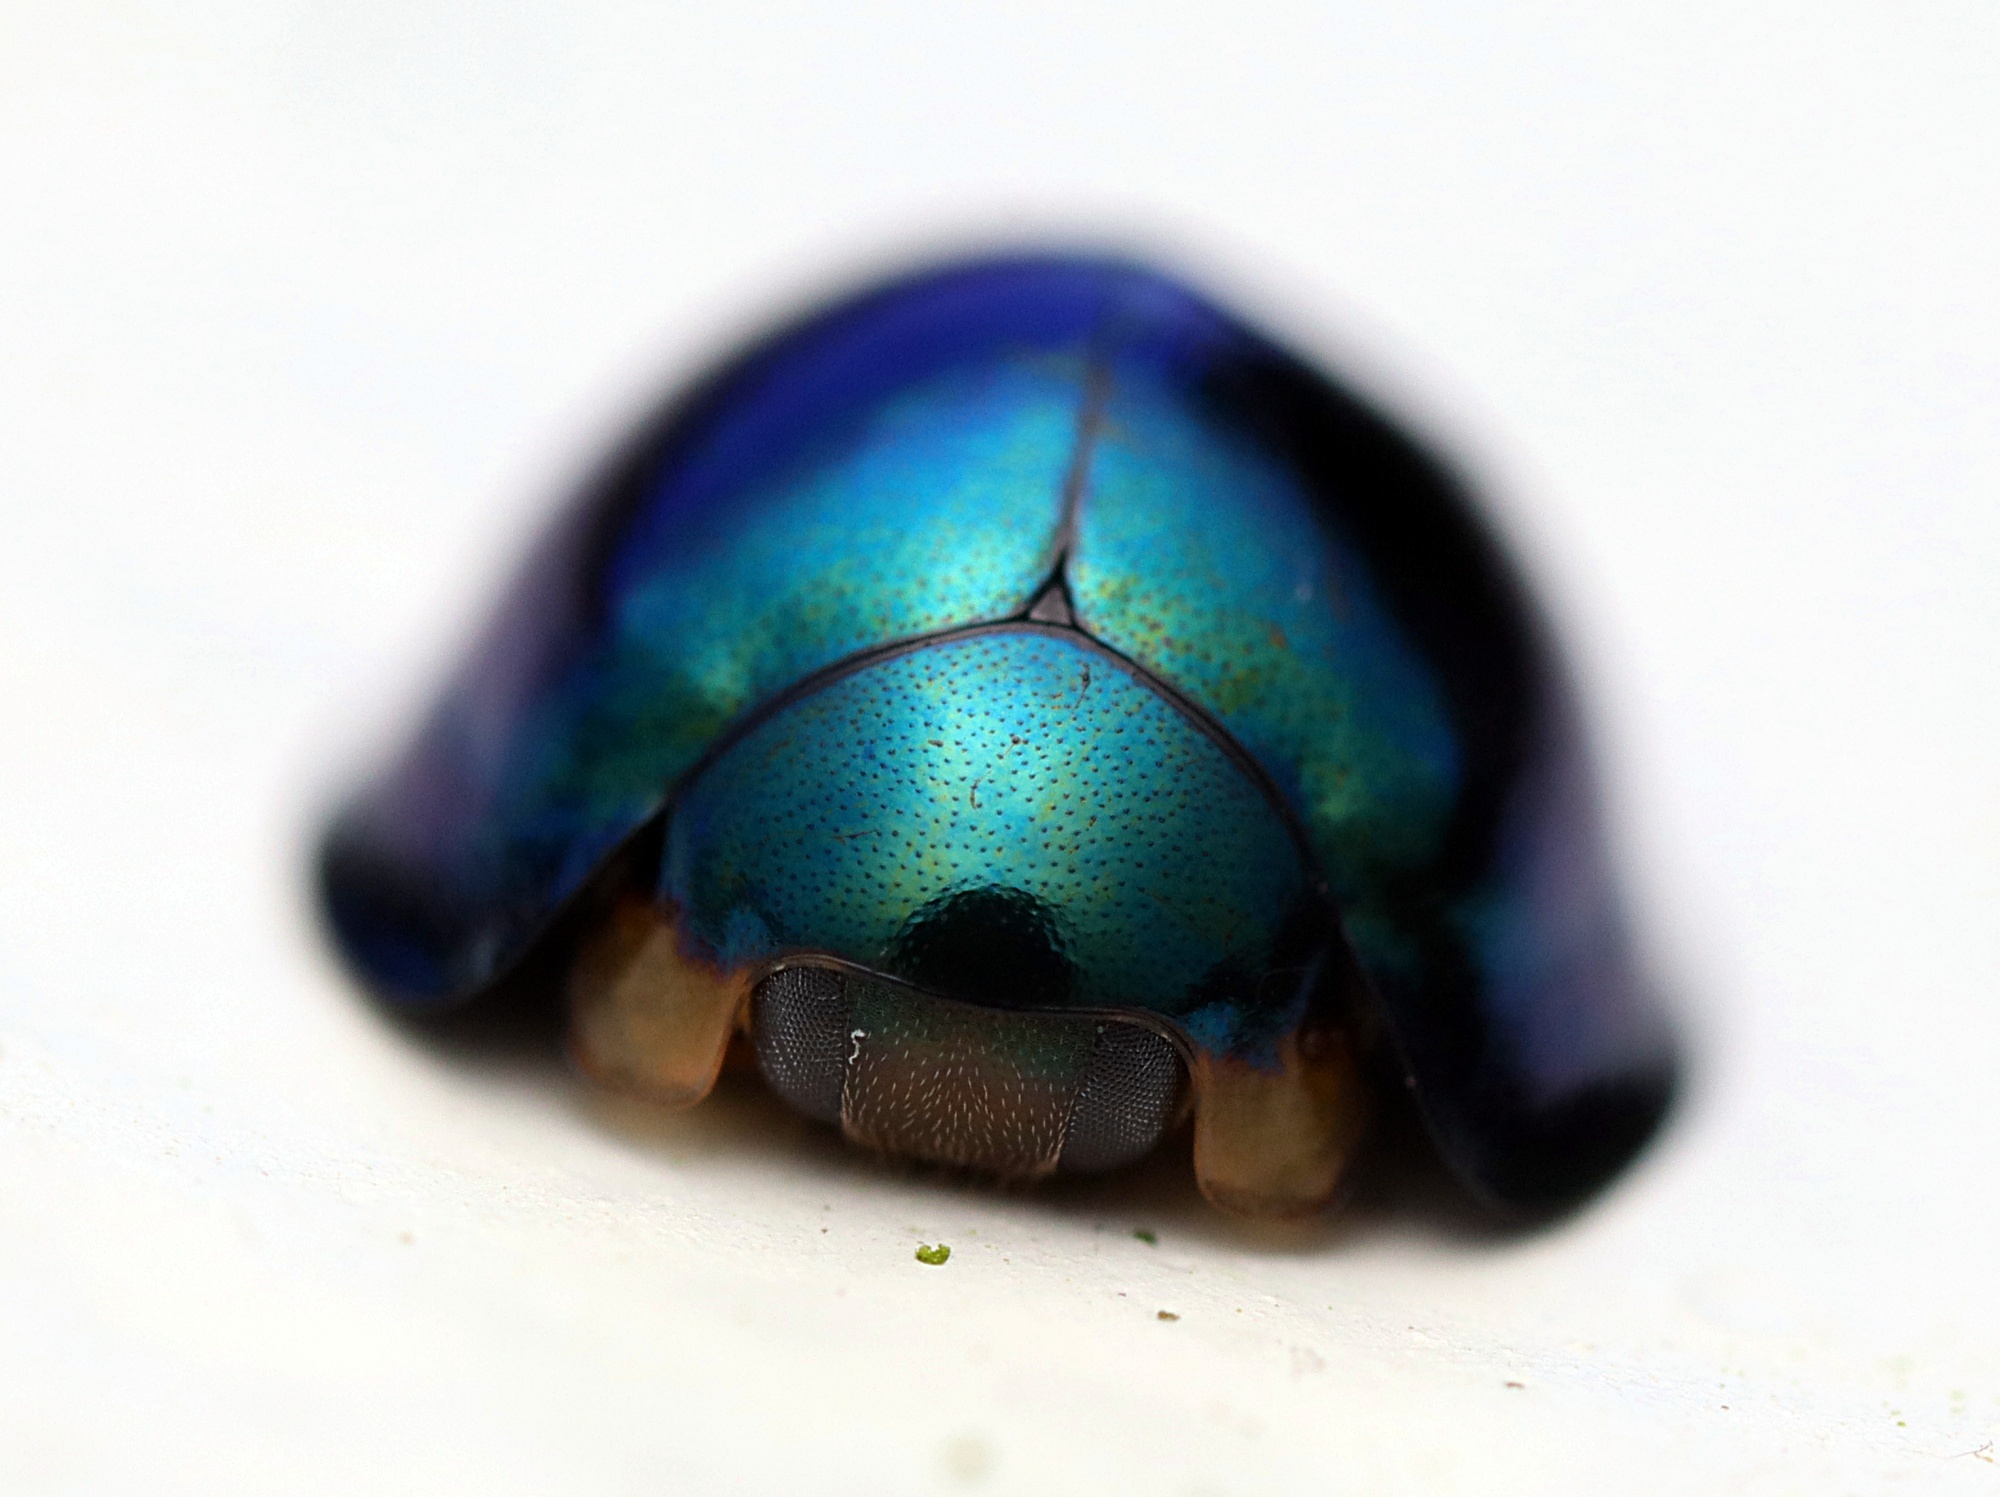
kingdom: Animalia
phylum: Arthropoda
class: Insecta
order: Coleoptera
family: Coccinellidae
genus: Halmus
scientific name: Halmus chalybeus
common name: Steel blue ladybird beetle
